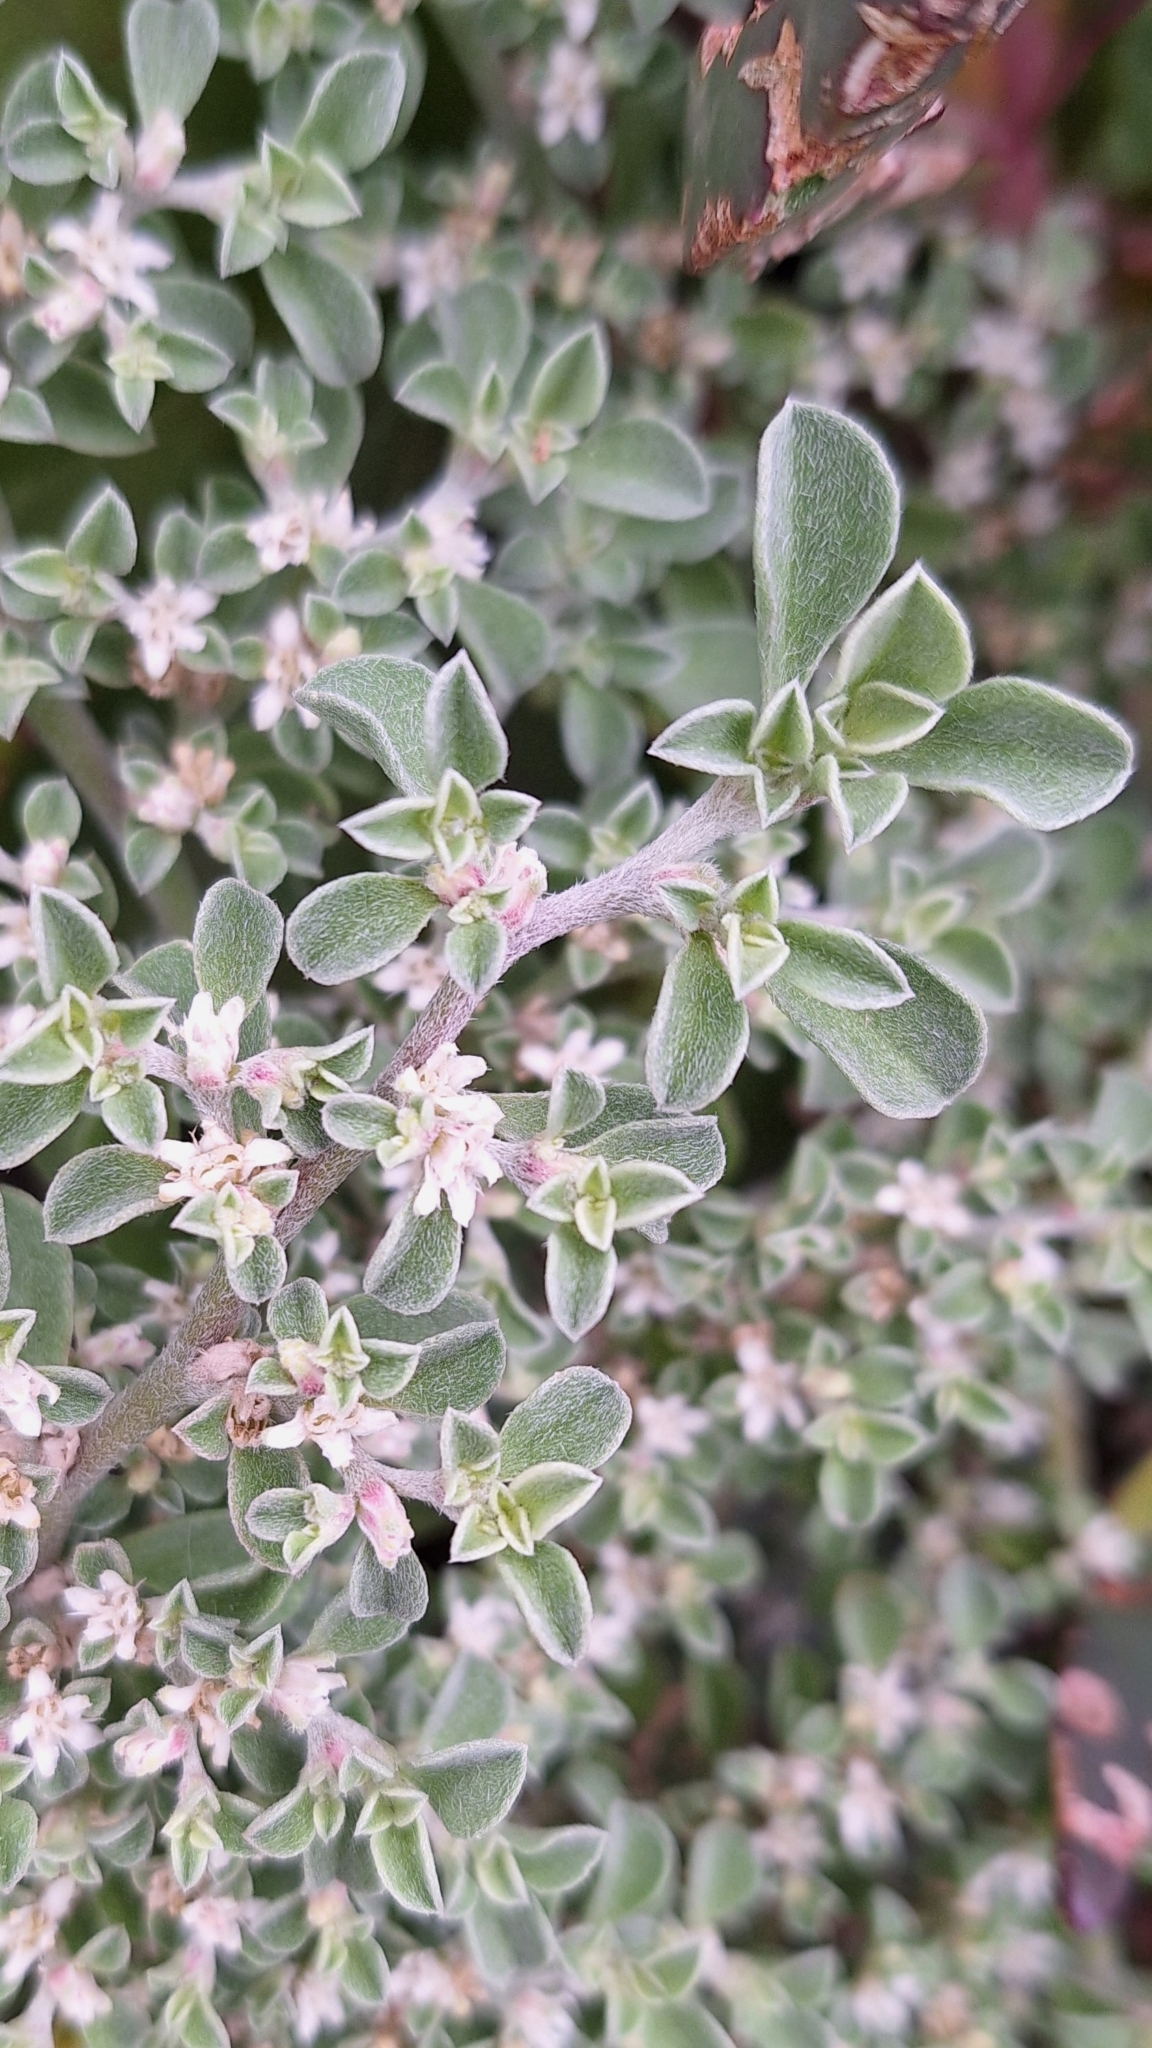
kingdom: Plantae
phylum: Tracheophyta
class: Magnoliopsida
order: Caryophyllales
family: Aizoaceae
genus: Aizoon
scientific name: Aizoon pubescens
